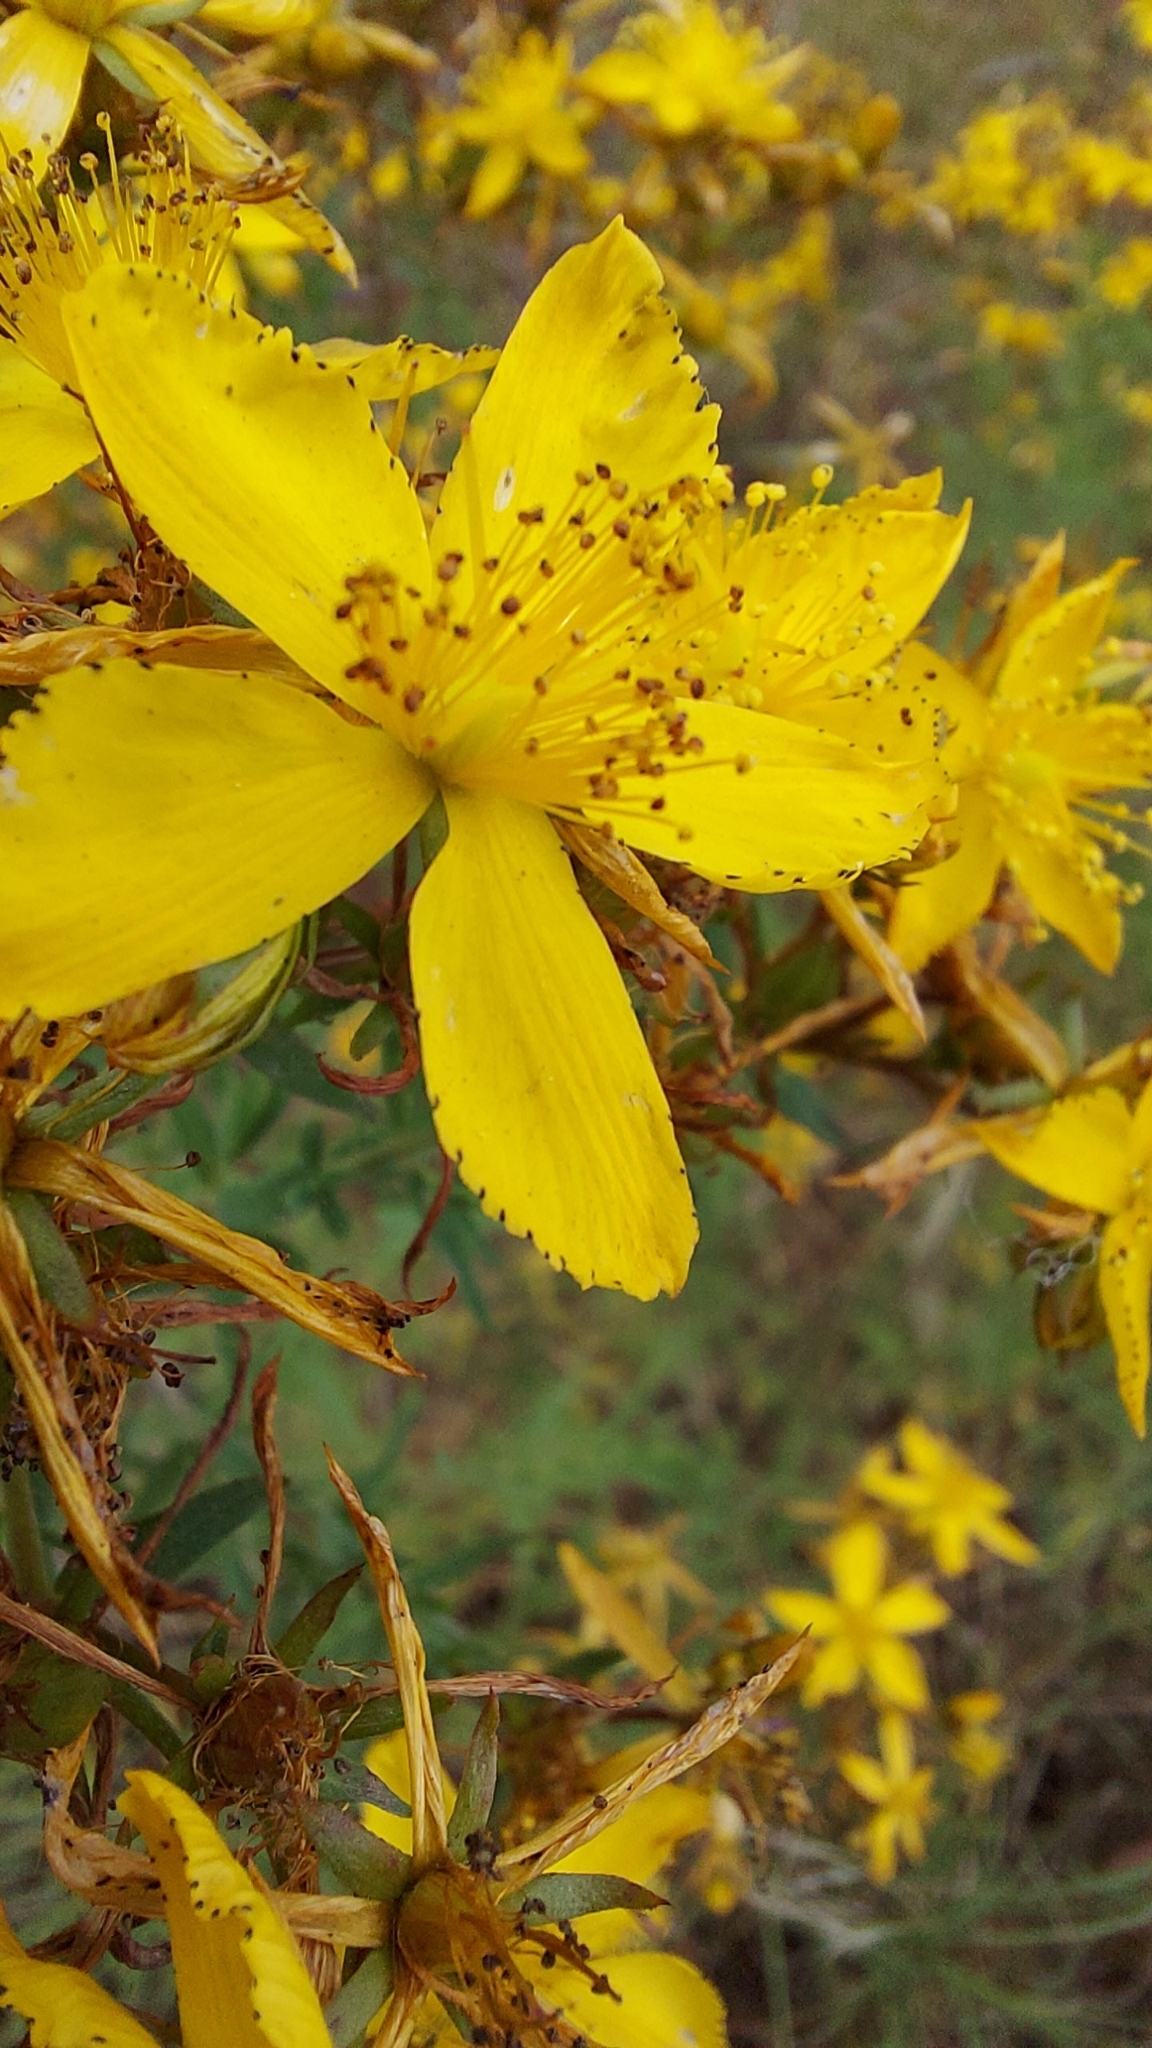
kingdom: Plantae
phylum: Tracheophyta
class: Magnoliopsida
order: Malpighiales
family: Hypericaceae
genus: Hypericum
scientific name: Hypericum perforatum
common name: Common st. johnswort
